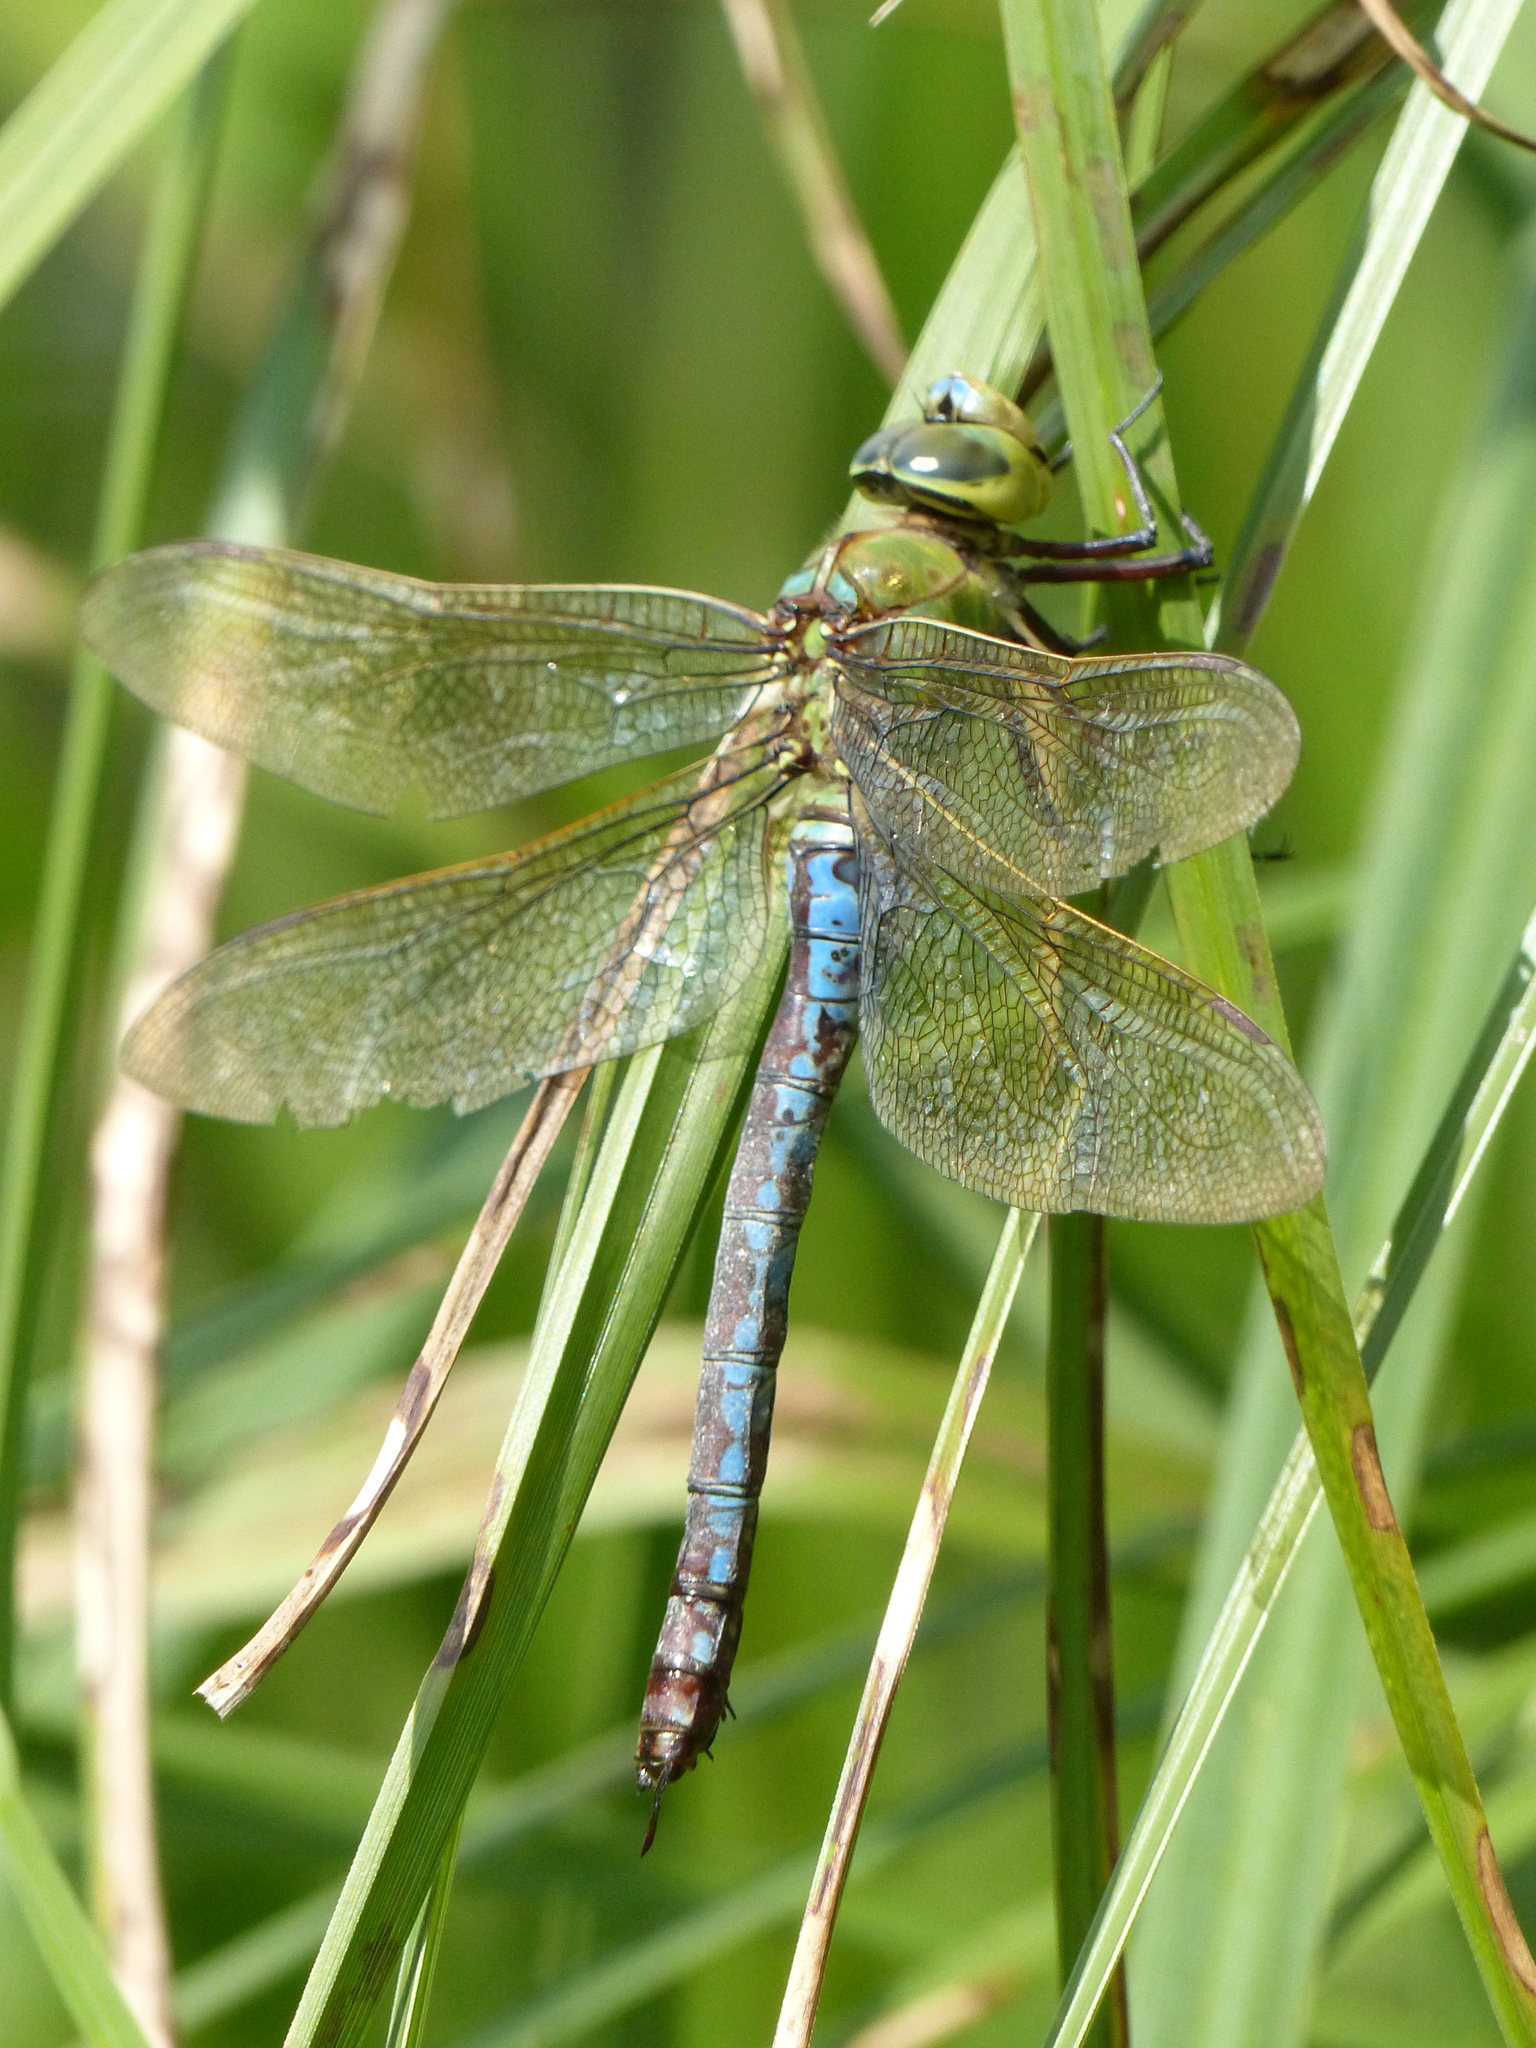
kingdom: Animalia
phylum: Arthropoda
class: Insecta
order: Odonata
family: Aeshnidae
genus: Anax
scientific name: Anax imperator
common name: Emperor dragonfly
